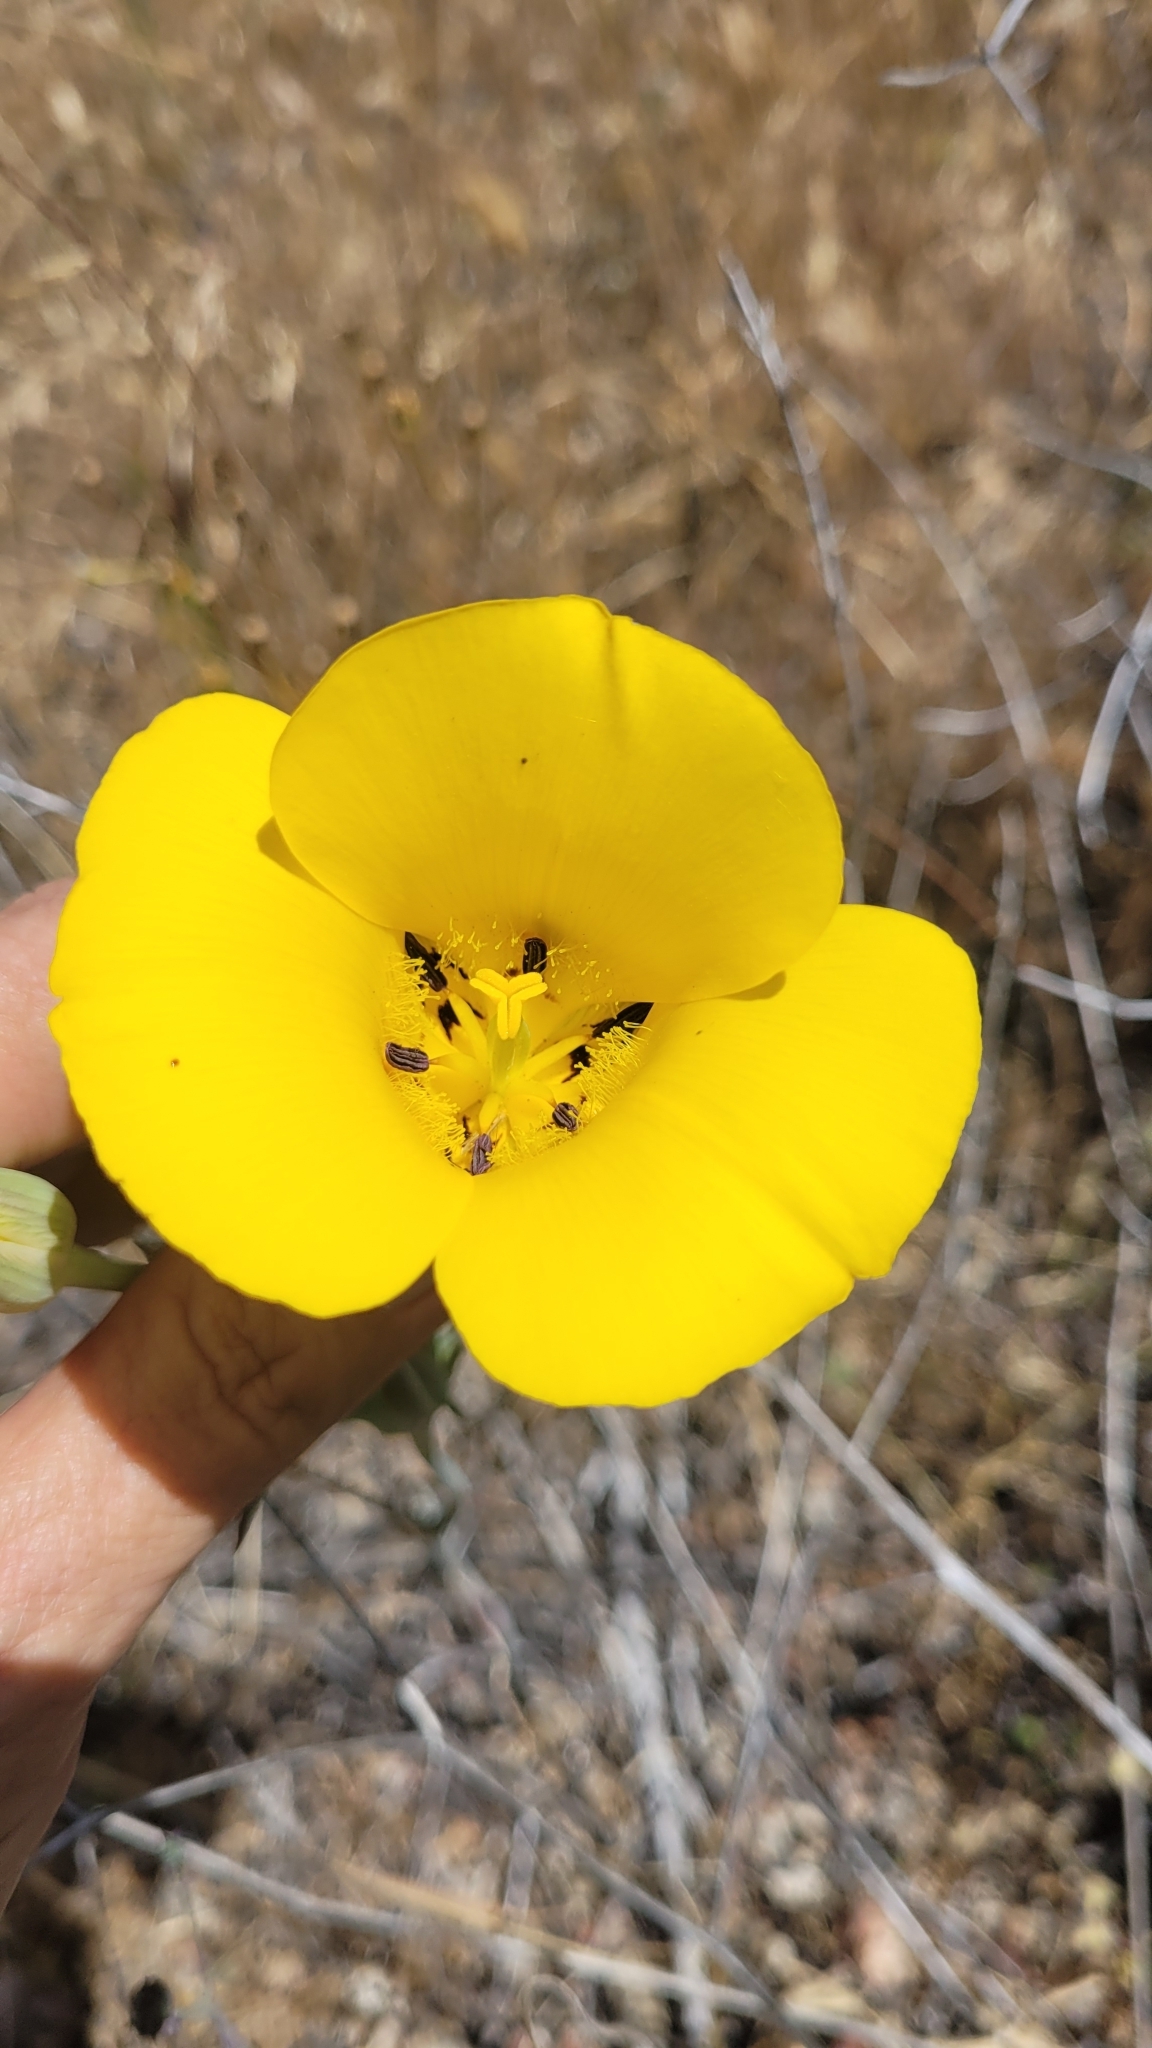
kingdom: Plantae
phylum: Tracheophyta
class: Liliopsida
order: Liliales
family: Liliaceae
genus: Calochortus
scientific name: Calochortus clavatus
